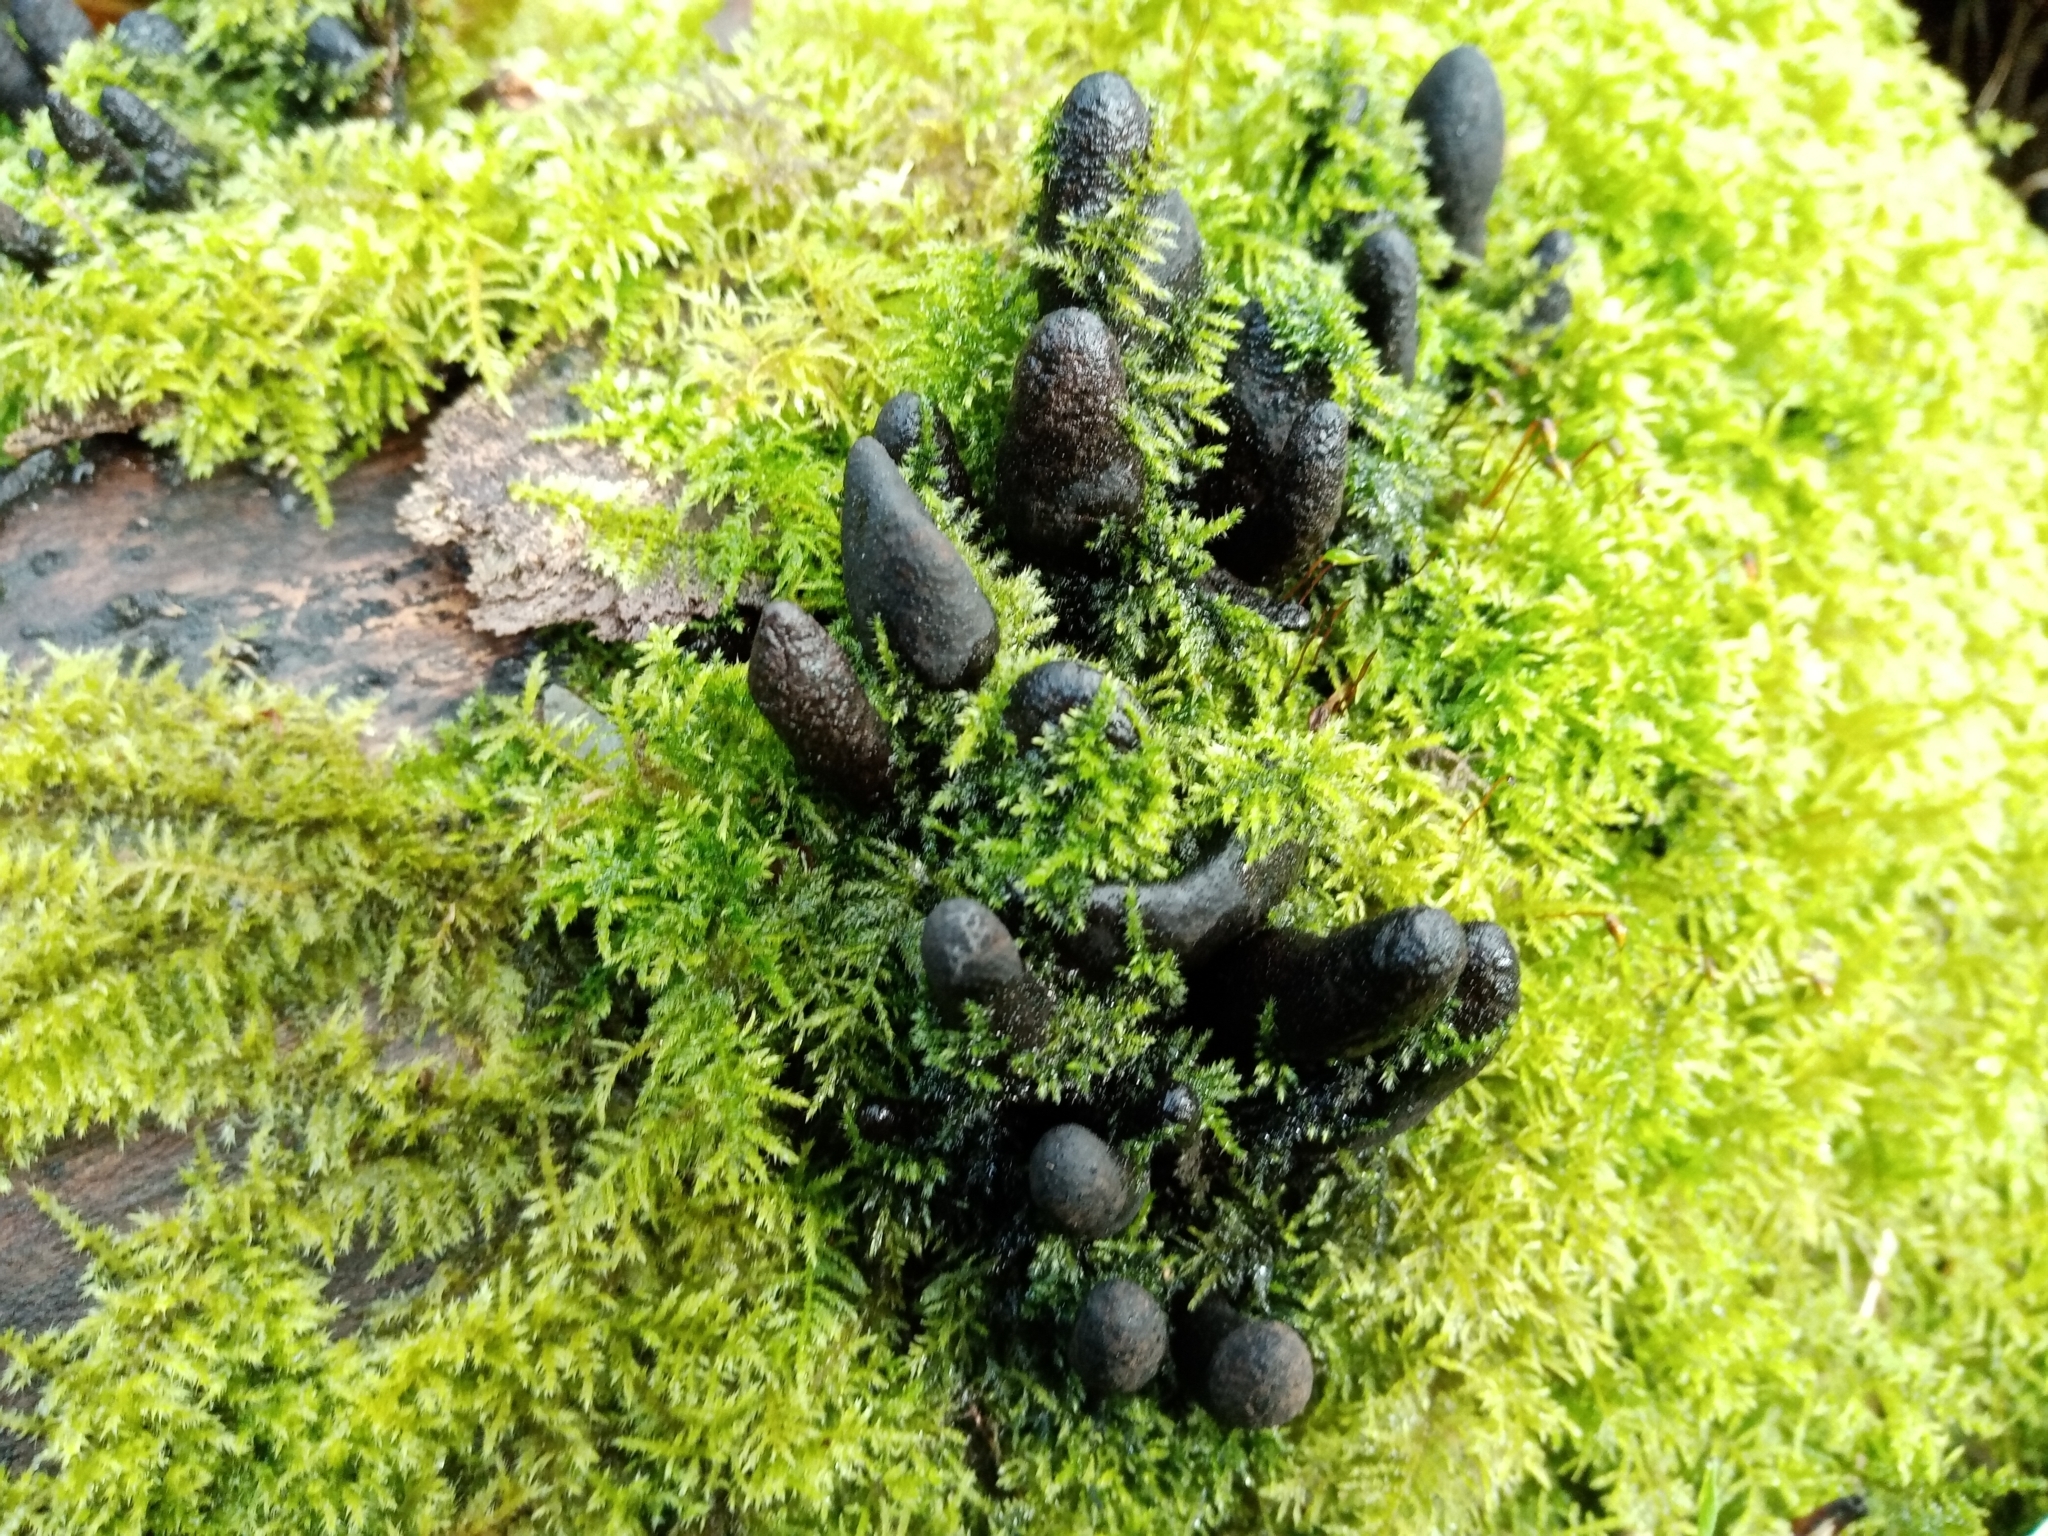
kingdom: Fungi
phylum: Ascomycota
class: Sordariomycetes
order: Xylariales
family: Xylariaceae
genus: Xylaria
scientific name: Xylaria longipes
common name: Dead moll's fingers
